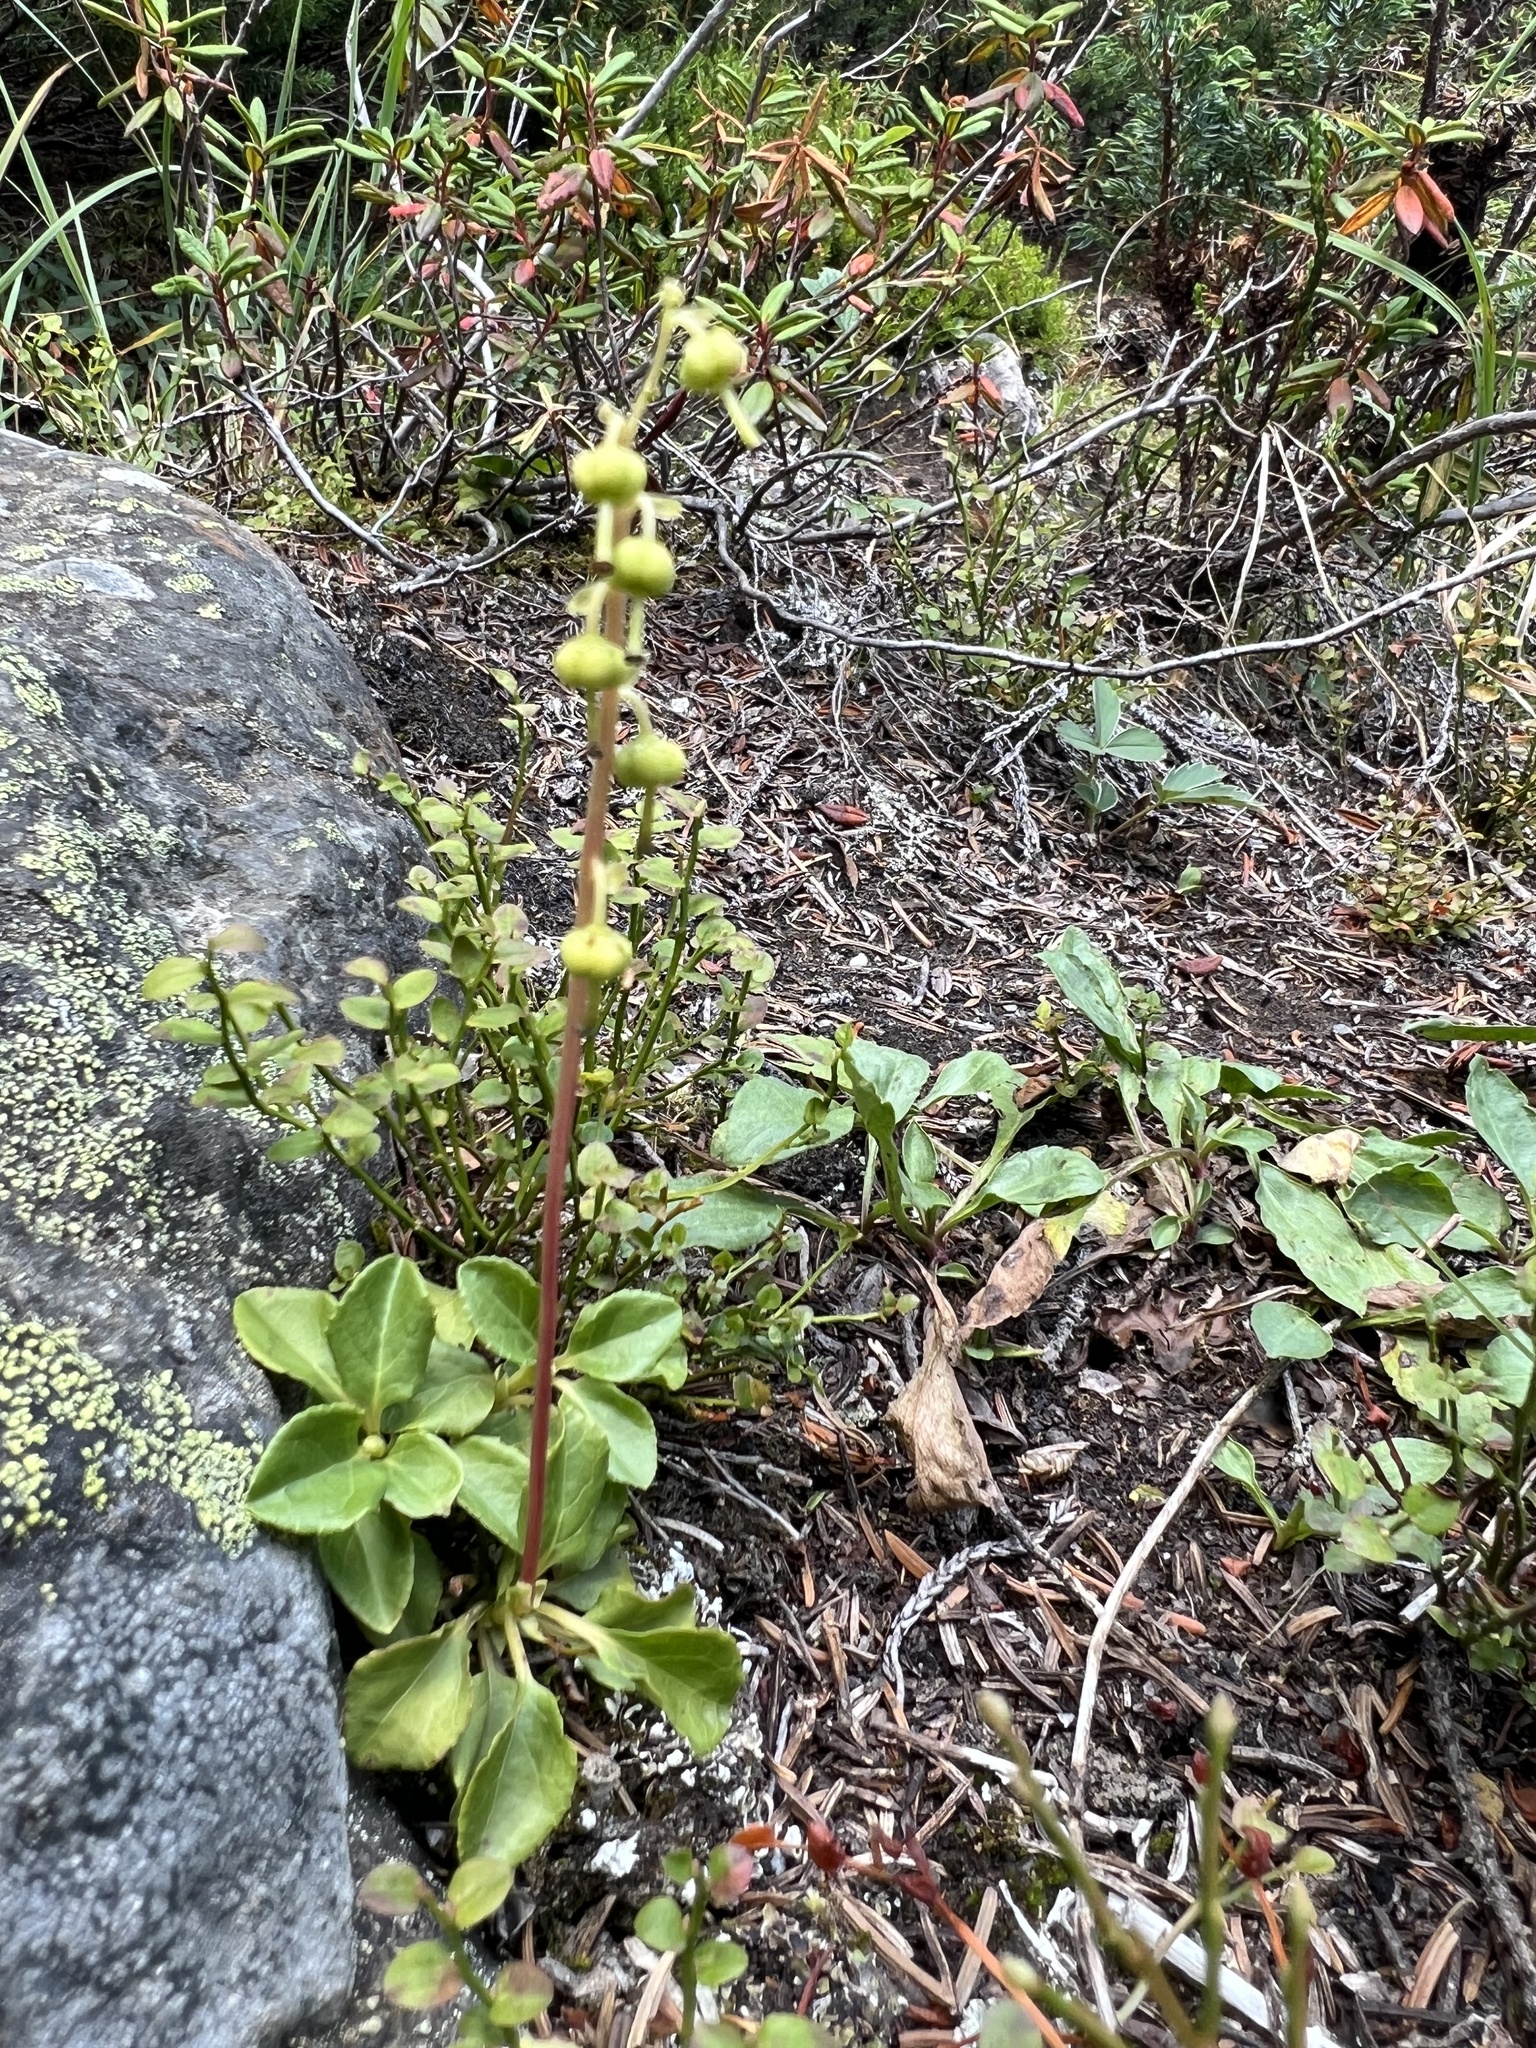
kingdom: Plantae
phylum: Tracheophyta
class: Magnoliopsida
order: Ericales
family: Ericaceae
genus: Orthilia
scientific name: Orthilia secunda
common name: One-sided orthilia
